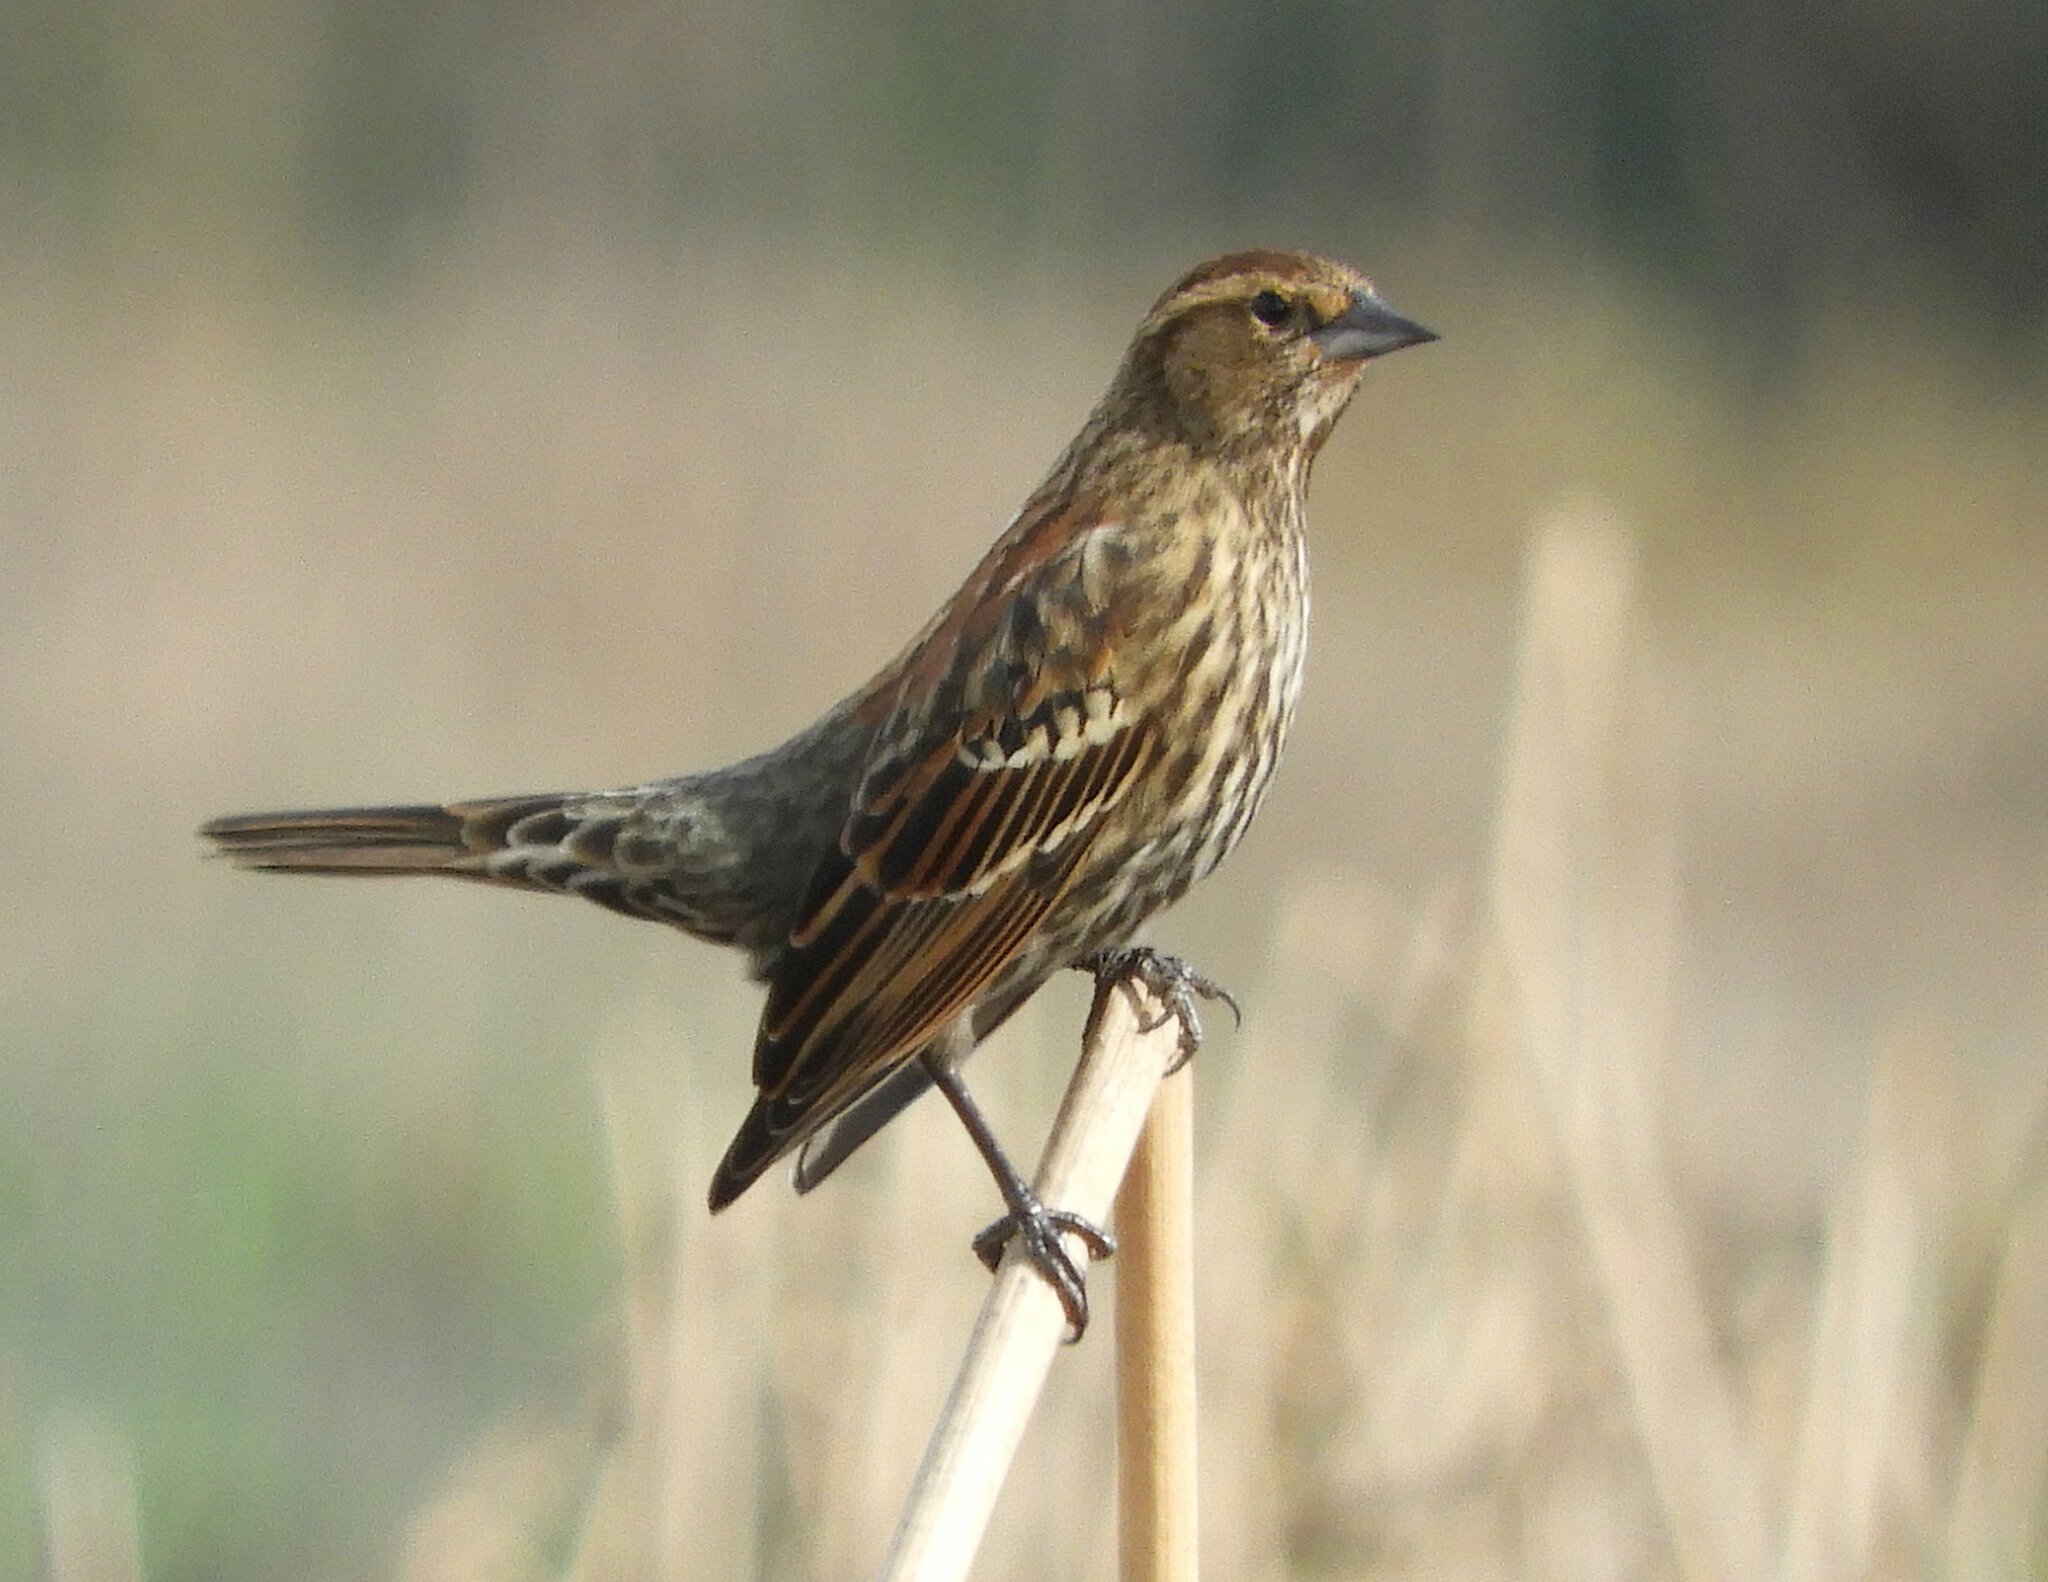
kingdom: Animalia
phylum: Chordata
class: Aves
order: Passeriformes
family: Icteridae
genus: Agelaius
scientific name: Agelaius phoeniceus
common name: Red-winged blackbird
